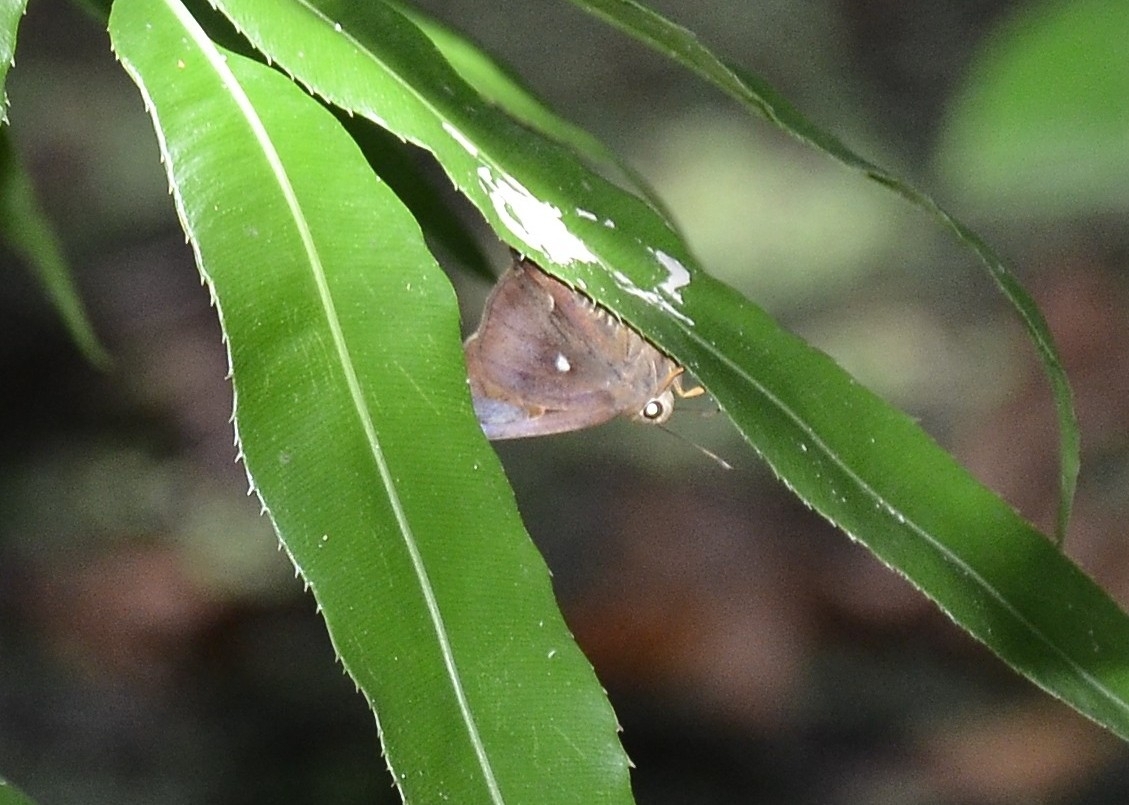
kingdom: Animalia
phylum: Arthropoda
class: Insecta
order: Lepidoptera
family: Hesperiidae
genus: Hasora
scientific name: Hasora badra
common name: Common awl
